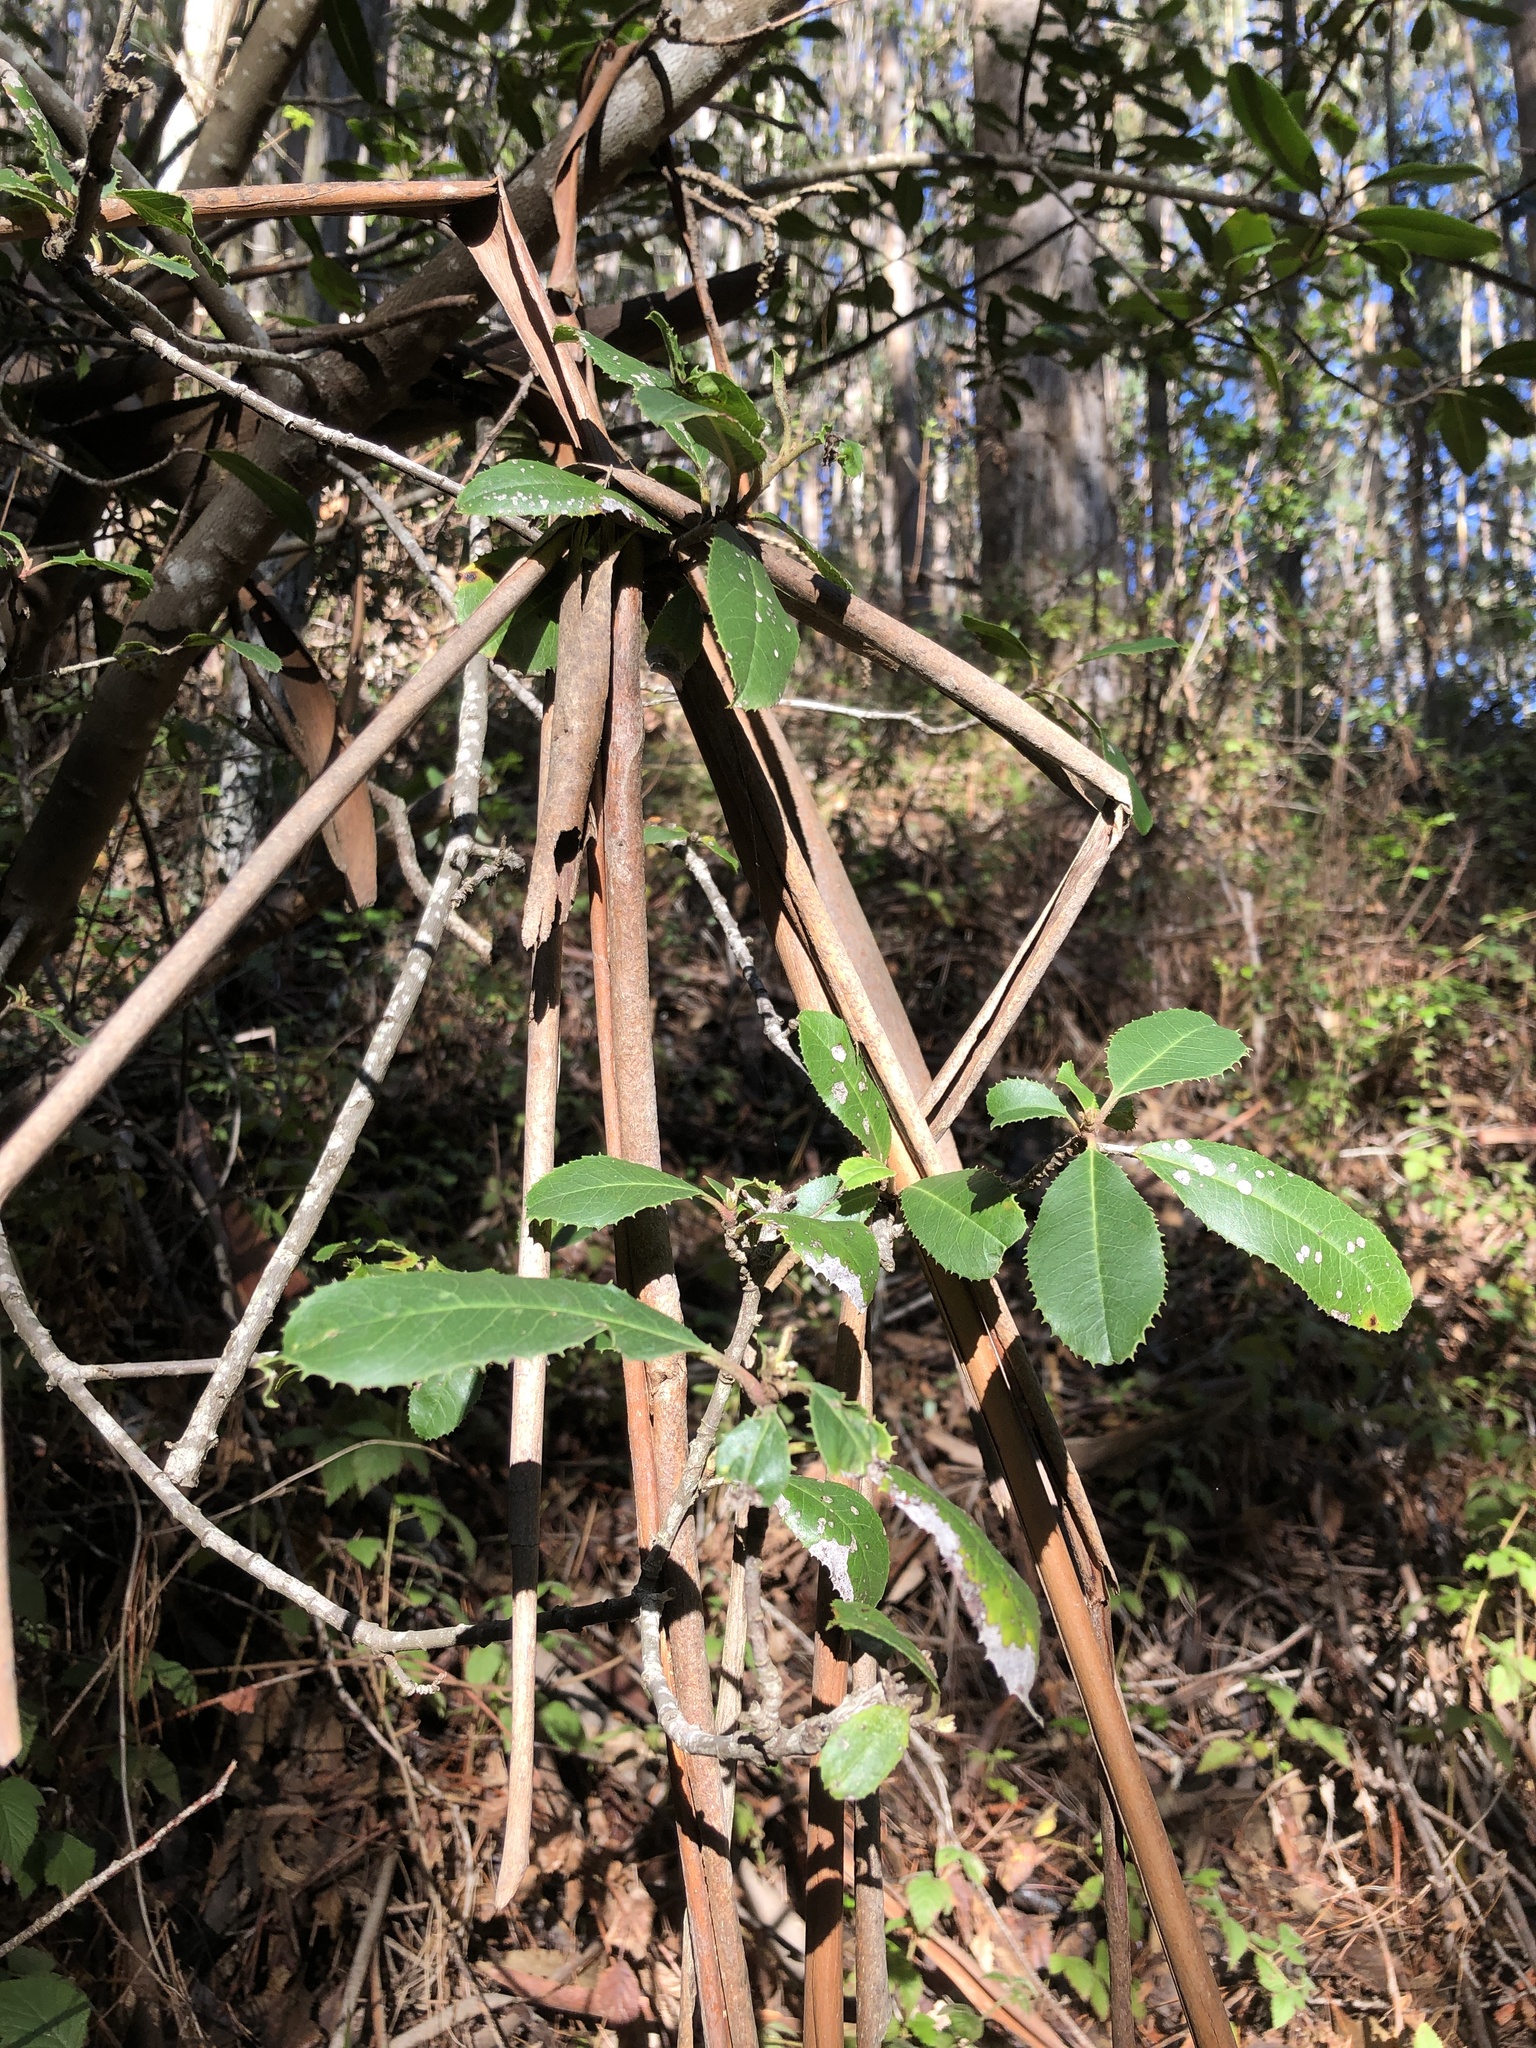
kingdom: Plantae
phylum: Tracheophyta
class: Magnoliopsida
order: Rosales
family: Rosaceae
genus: Heteromeles
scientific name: Heteromeles arbutifolia
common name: California-holly
